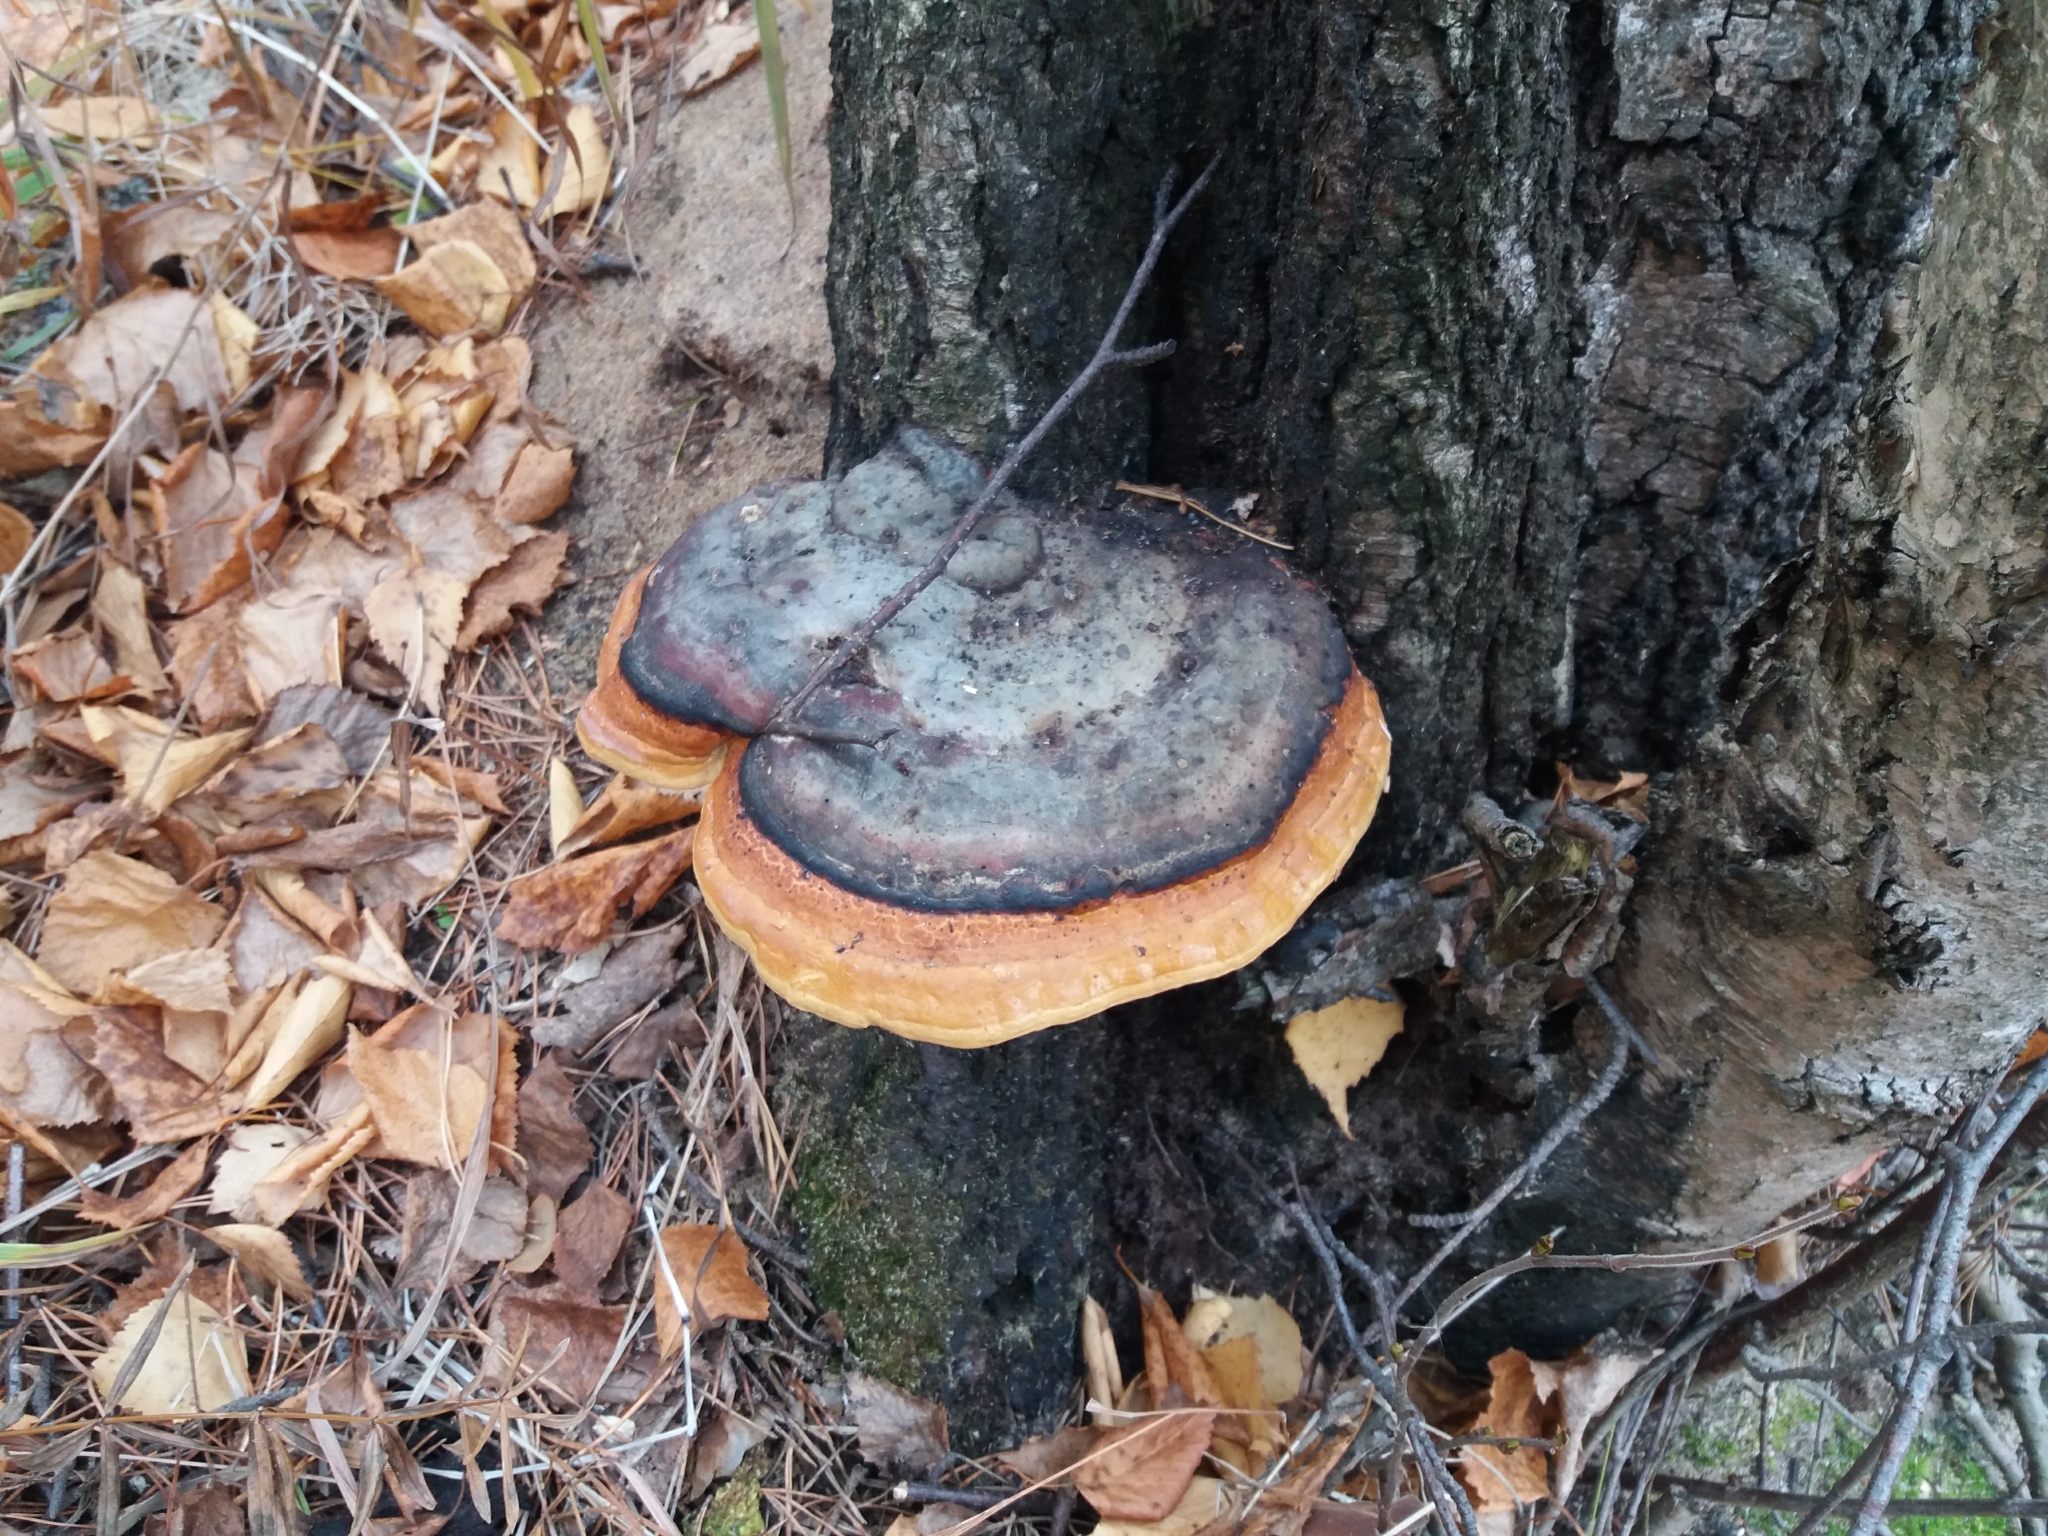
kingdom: Fungi
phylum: Basidiomycota
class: Agaricomycetes
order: Polyporales
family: Fomitopsidaceae
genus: Fomitopsis
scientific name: Fomitopsis pinicola
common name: Red-belted bracket
